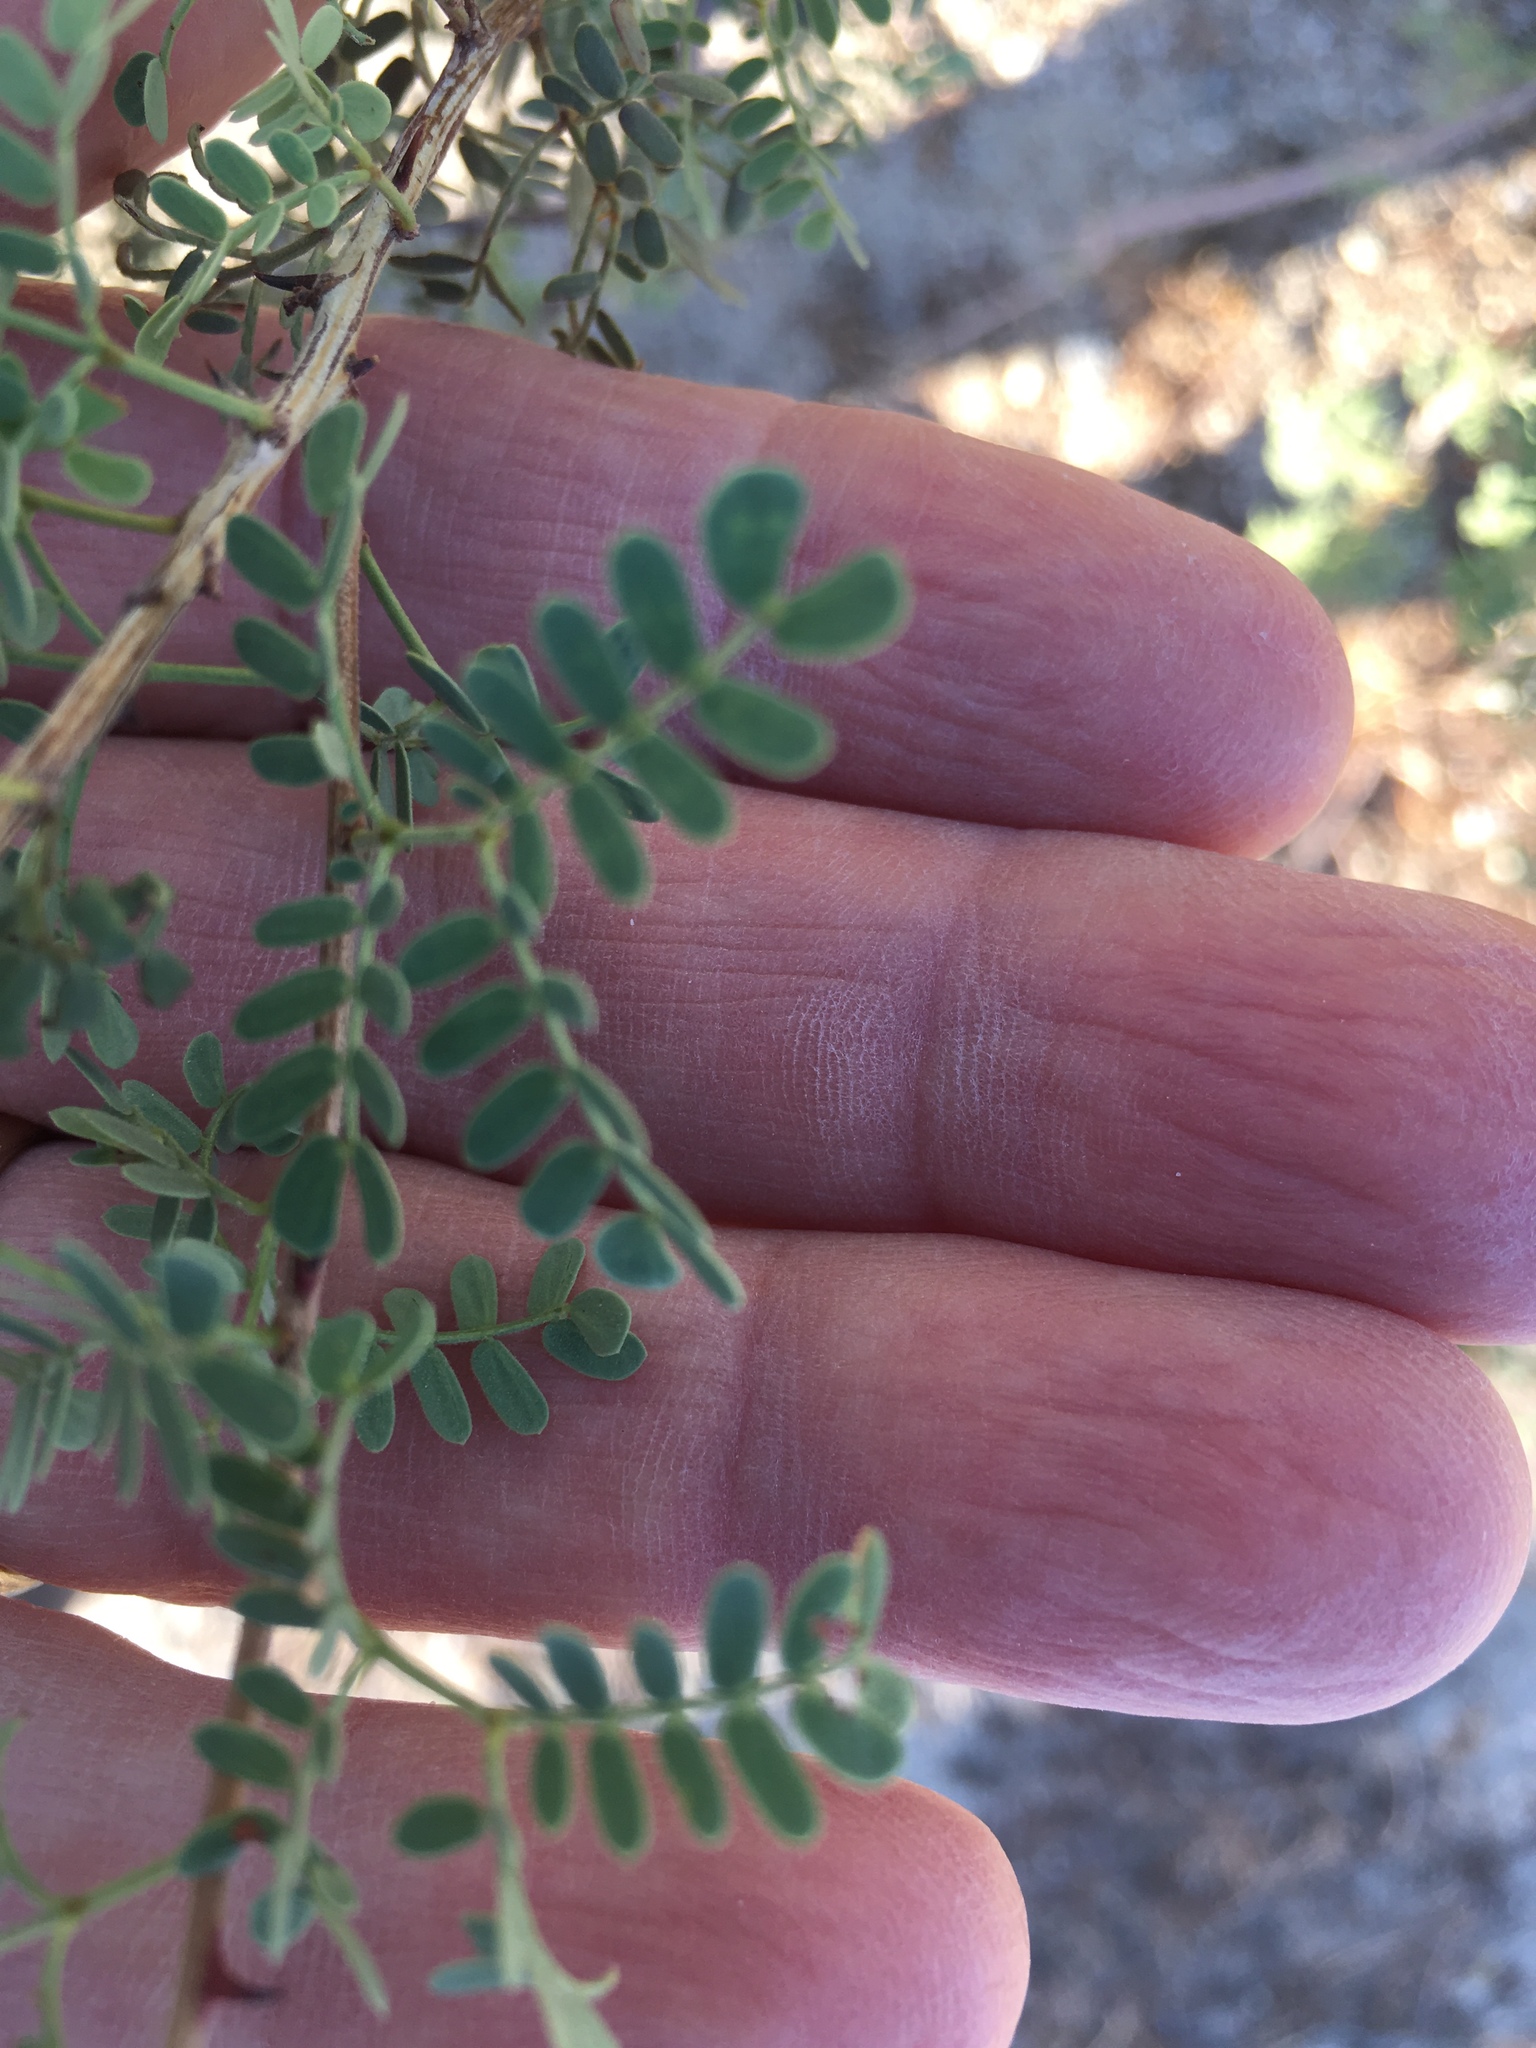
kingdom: Plantae
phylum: Tracheophyta
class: Magnoliopsida
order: Fabales
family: Fabaceae
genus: Senegalia
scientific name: Senegalia greggii
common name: Texas-mimosa
